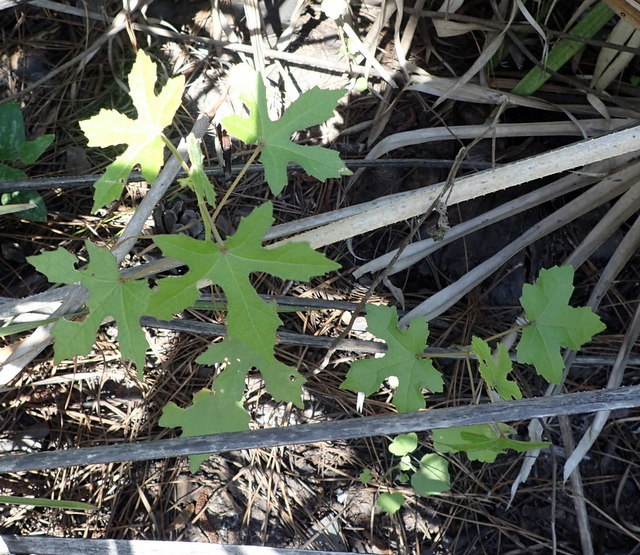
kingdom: Plantae
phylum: Tracheophyta
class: Magnoliopsida
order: Malvales
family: Malvaceae
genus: Hibiscus
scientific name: Hibiscus aculeatus
